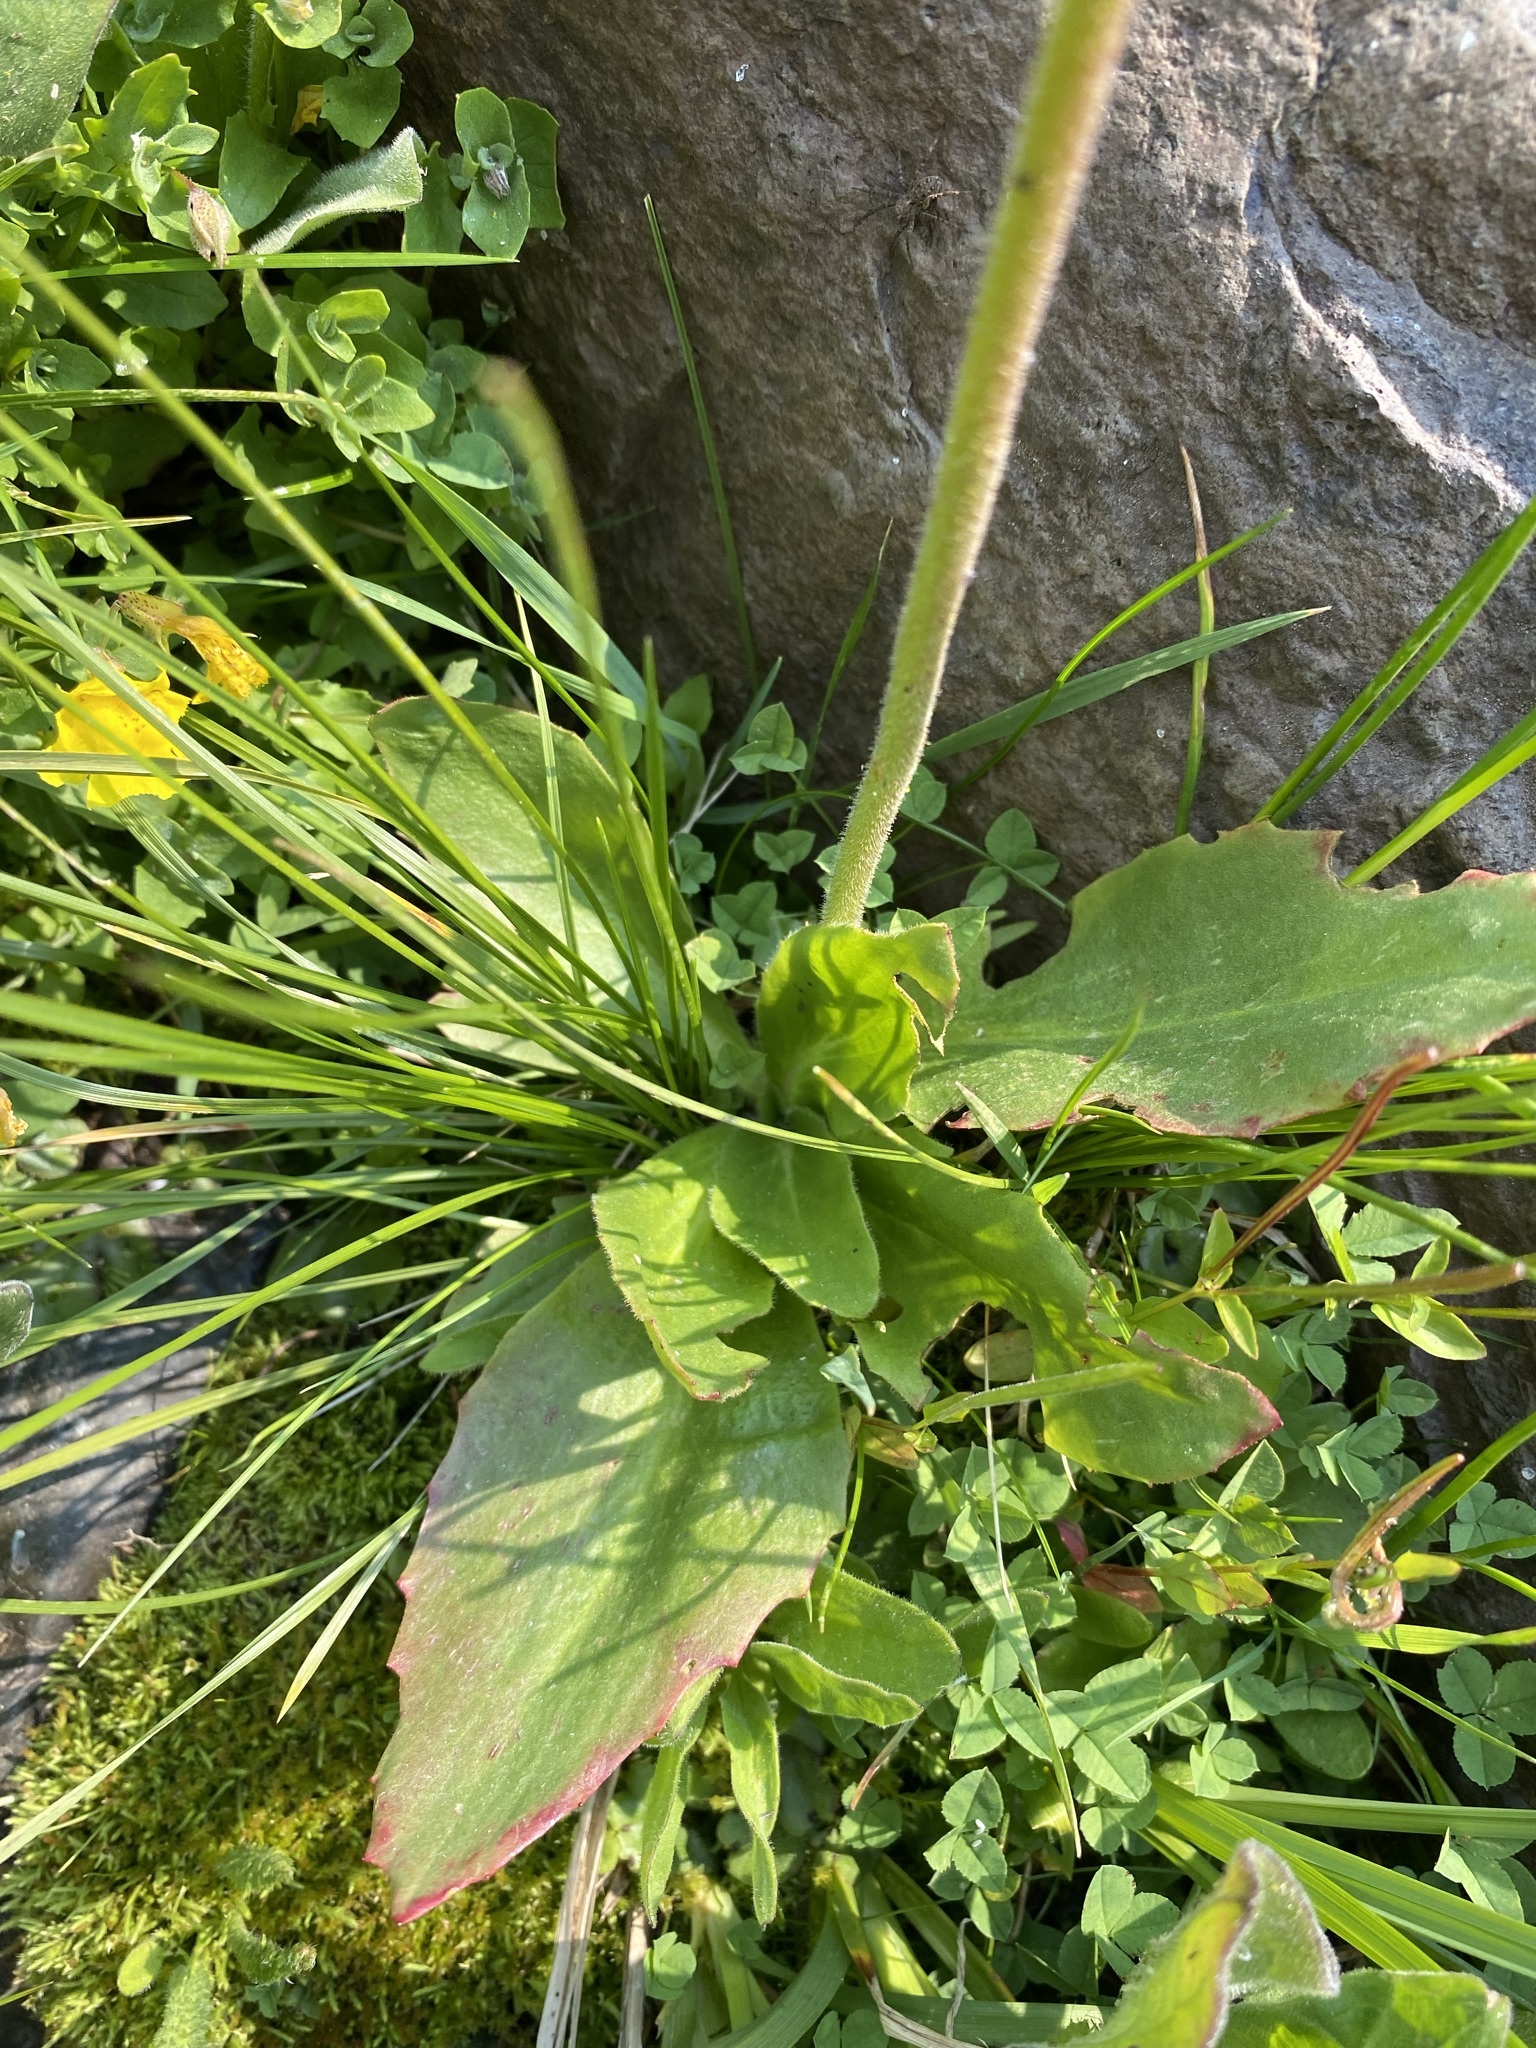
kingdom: Plantae
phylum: Tracheophyta
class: Magnoliopsida
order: Saxifragales
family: Saxifragaceae
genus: Micranthes
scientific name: Micranthes oregana
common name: Bog saxifrage
